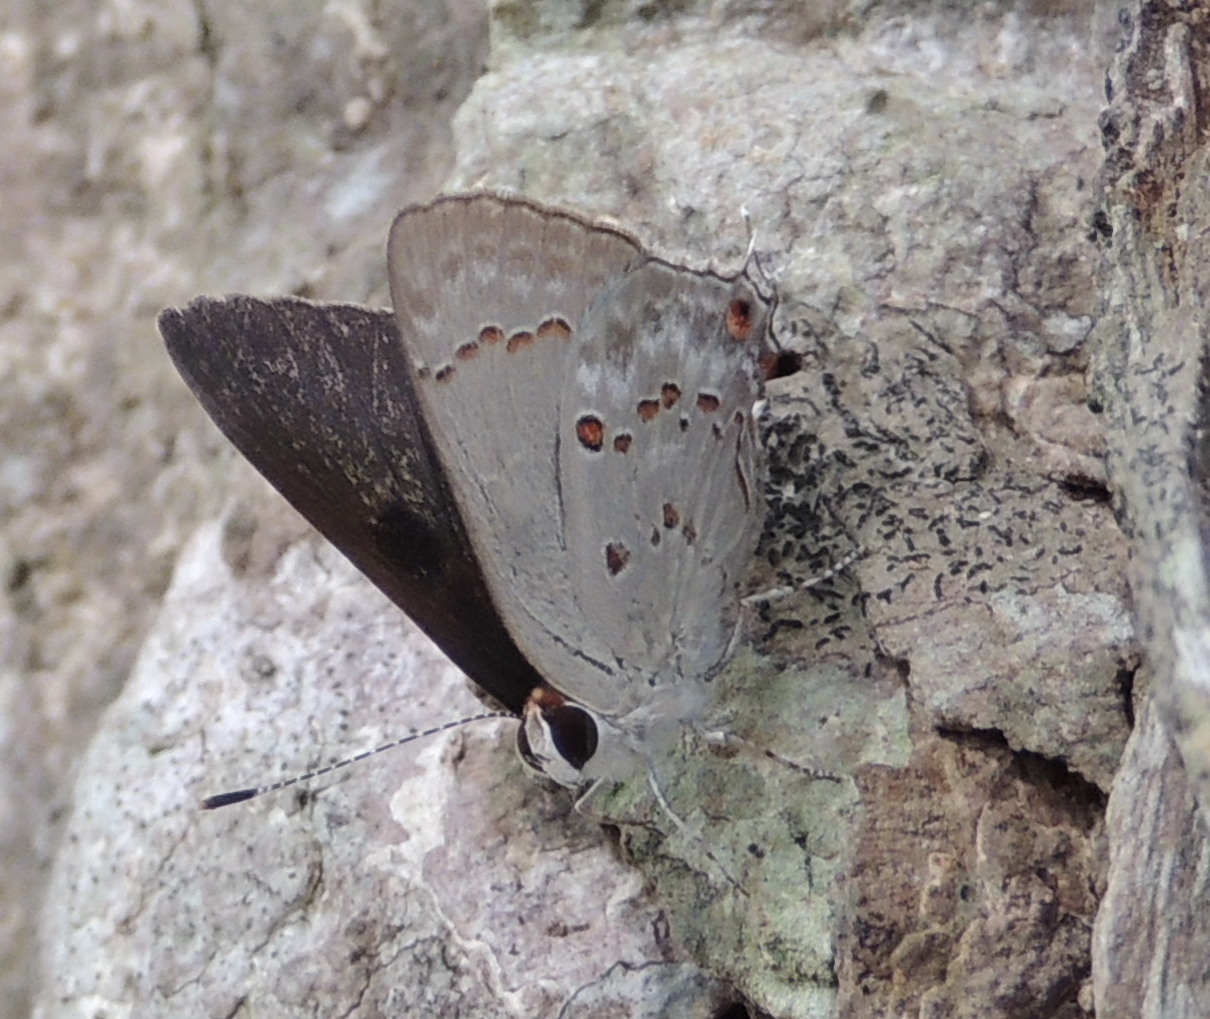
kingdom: Animalia
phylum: Arthropoda
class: Insecta
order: Lepidoptera
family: Lycaenidae
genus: Thecla
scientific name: Thecla megarus
